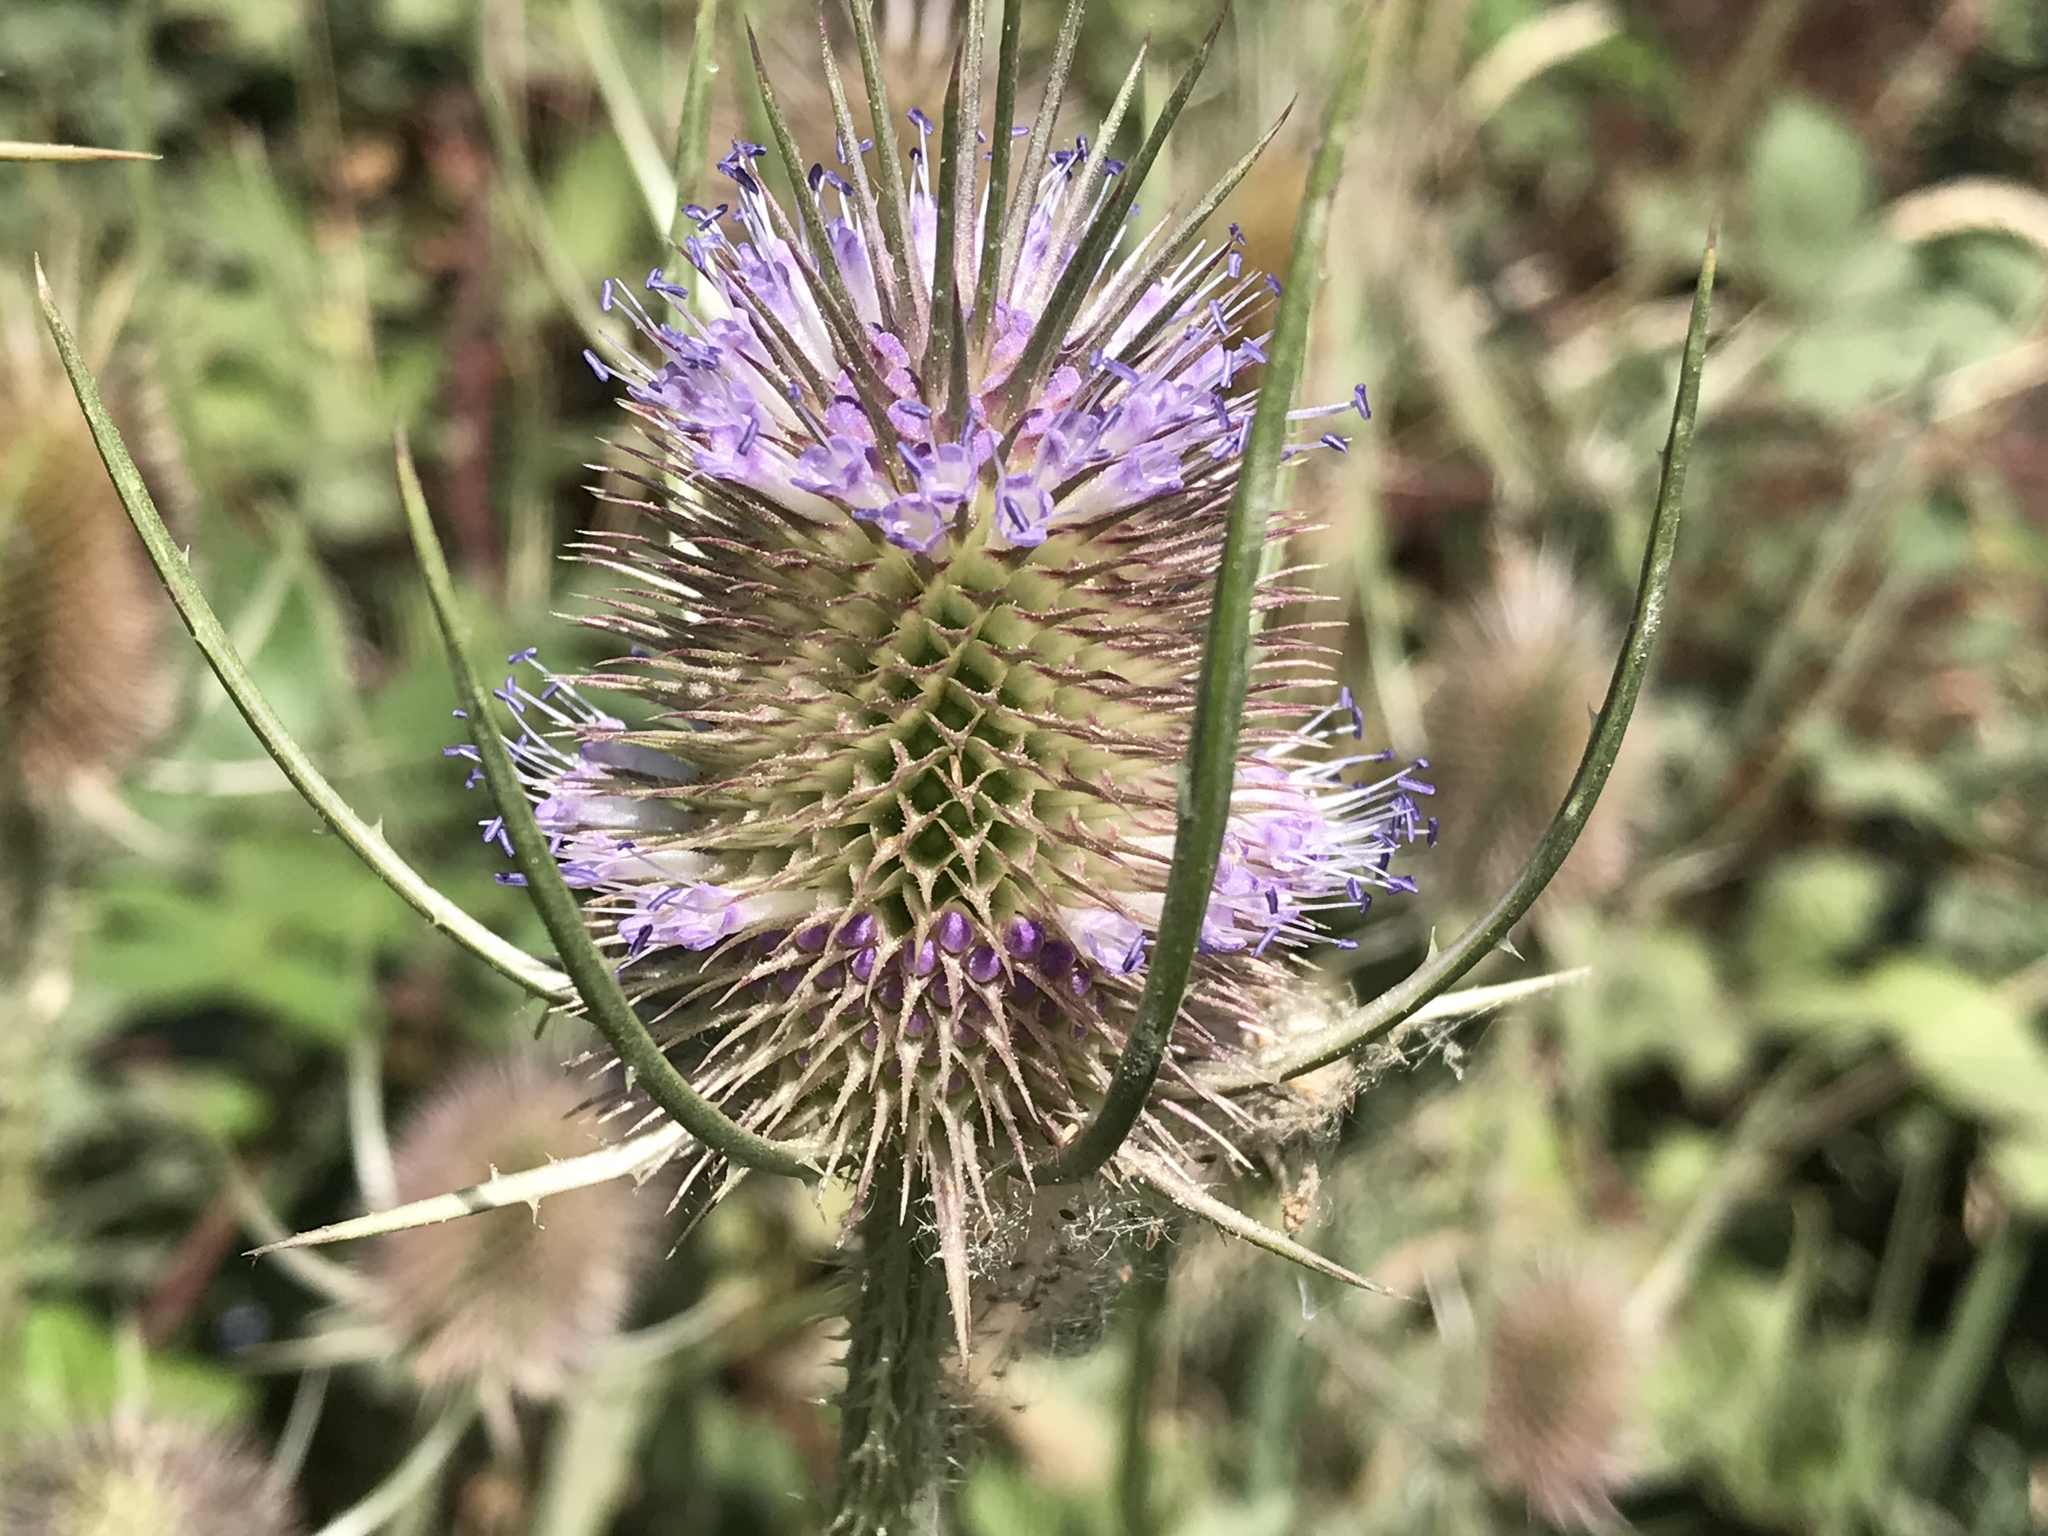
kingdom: Plantae
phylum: Tracheophyta
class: Magnoliopsida
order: Dipsacales
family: Caprifoliaceae
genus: Dipsacus
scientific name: Dipsacus fullonum
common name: Teasel
